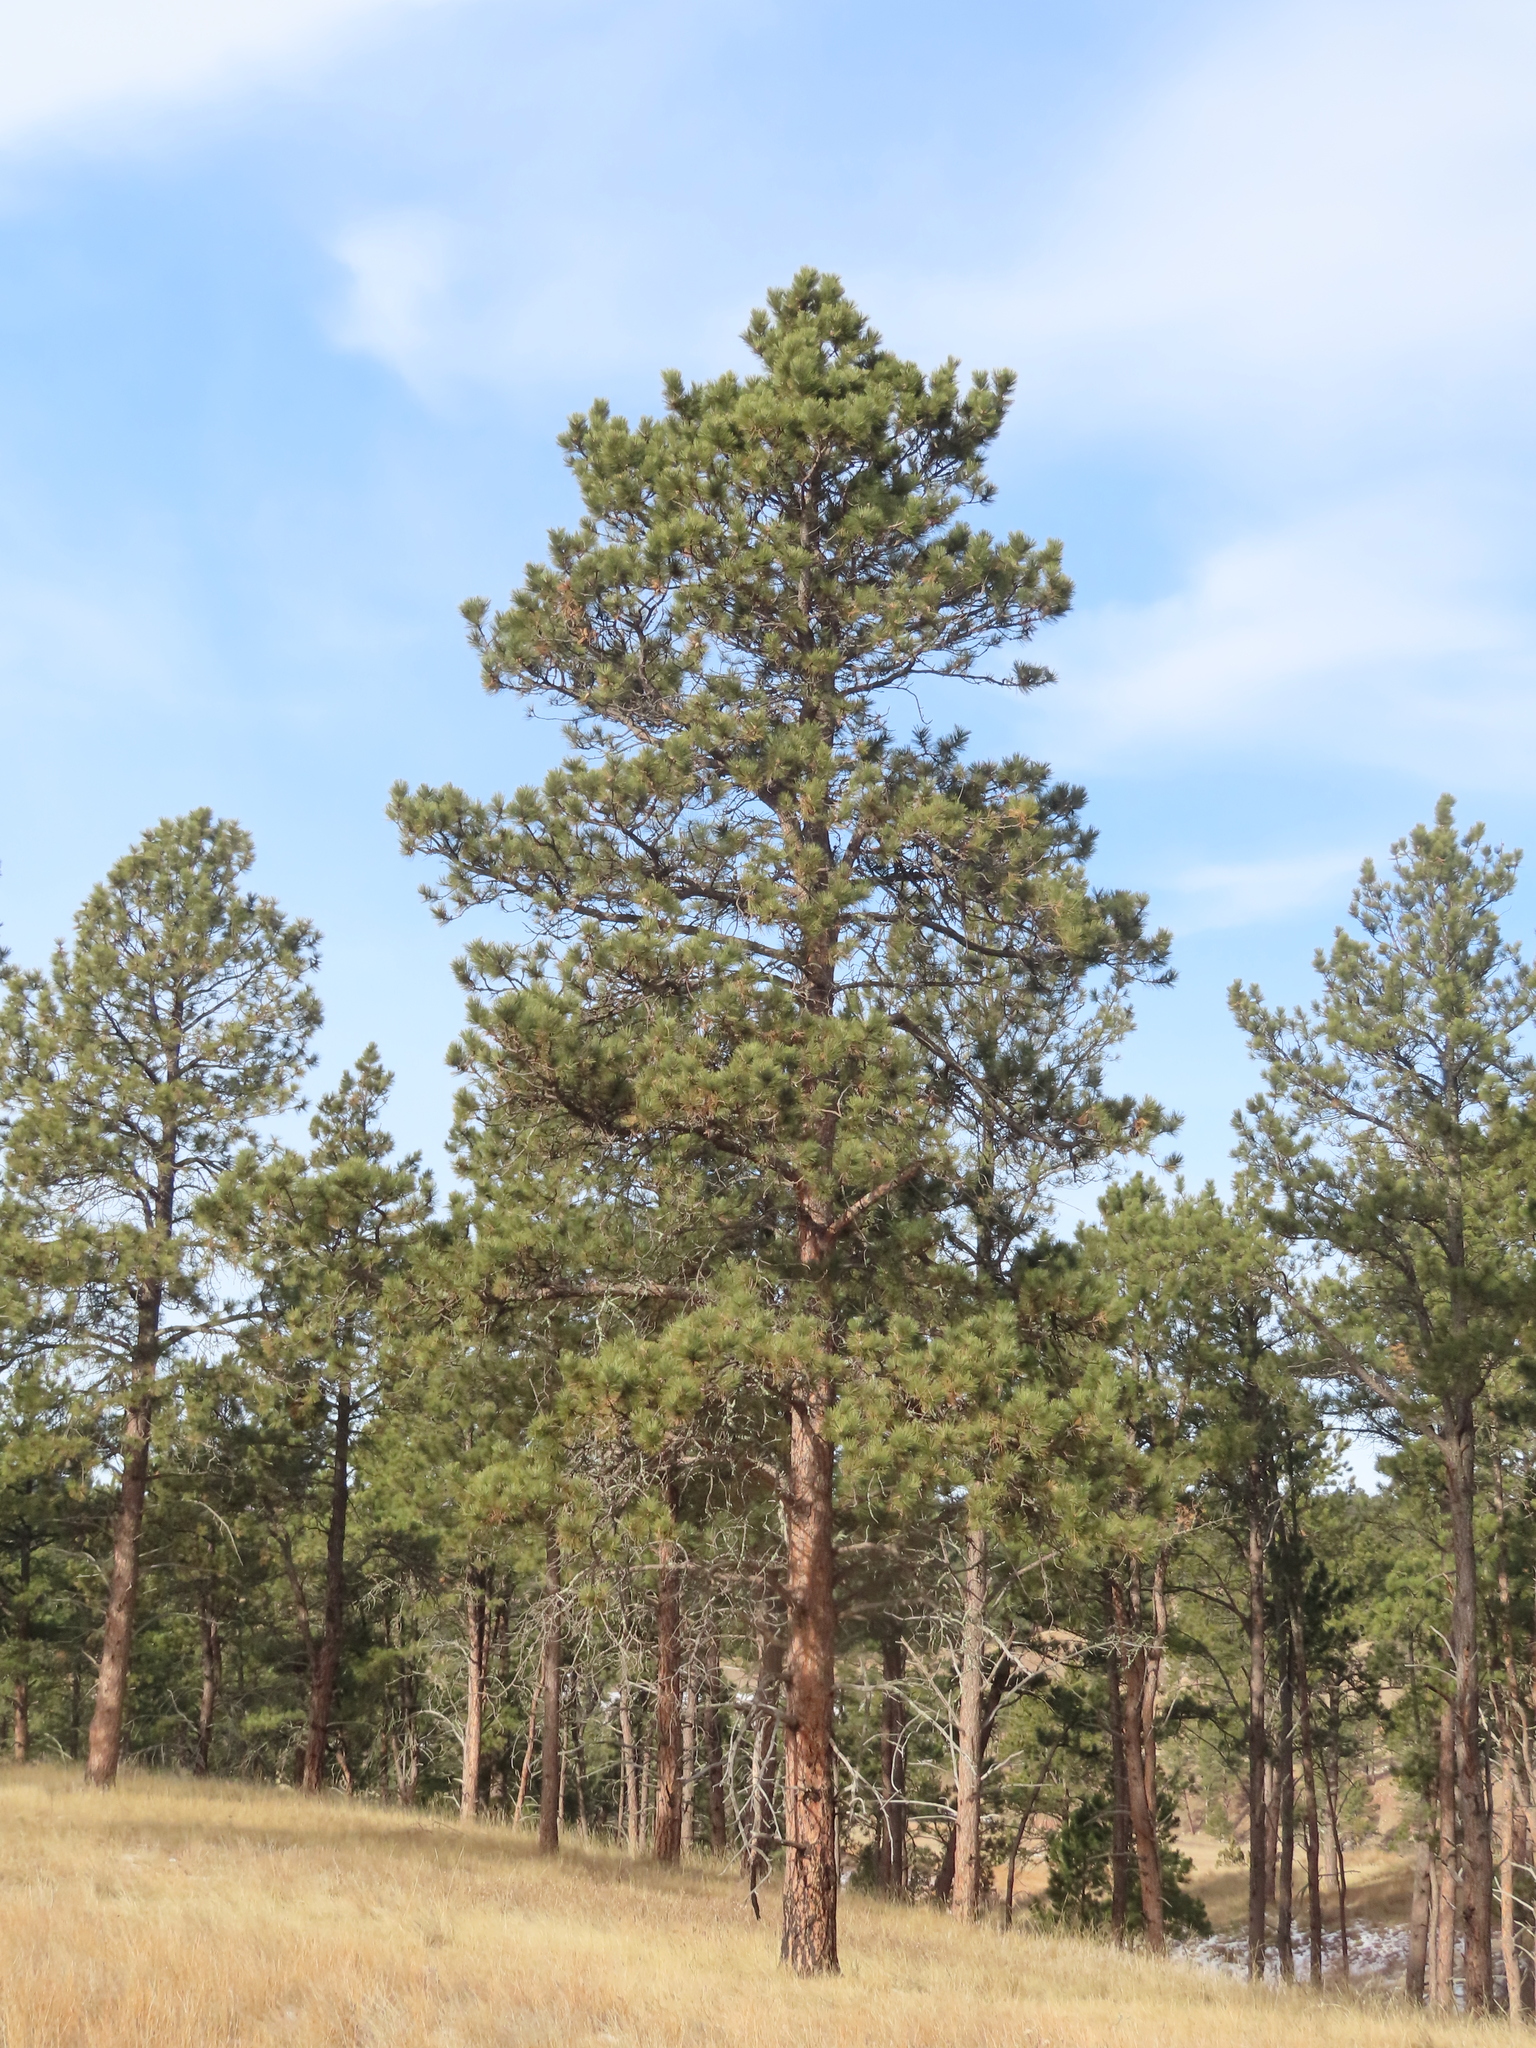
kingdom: Plantae
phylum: Tracheophyta
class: Pinopsida
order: Pinales
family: Pinaceae
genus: Pinus
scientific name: Pinus ponderosa
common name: Western yellow-pine
